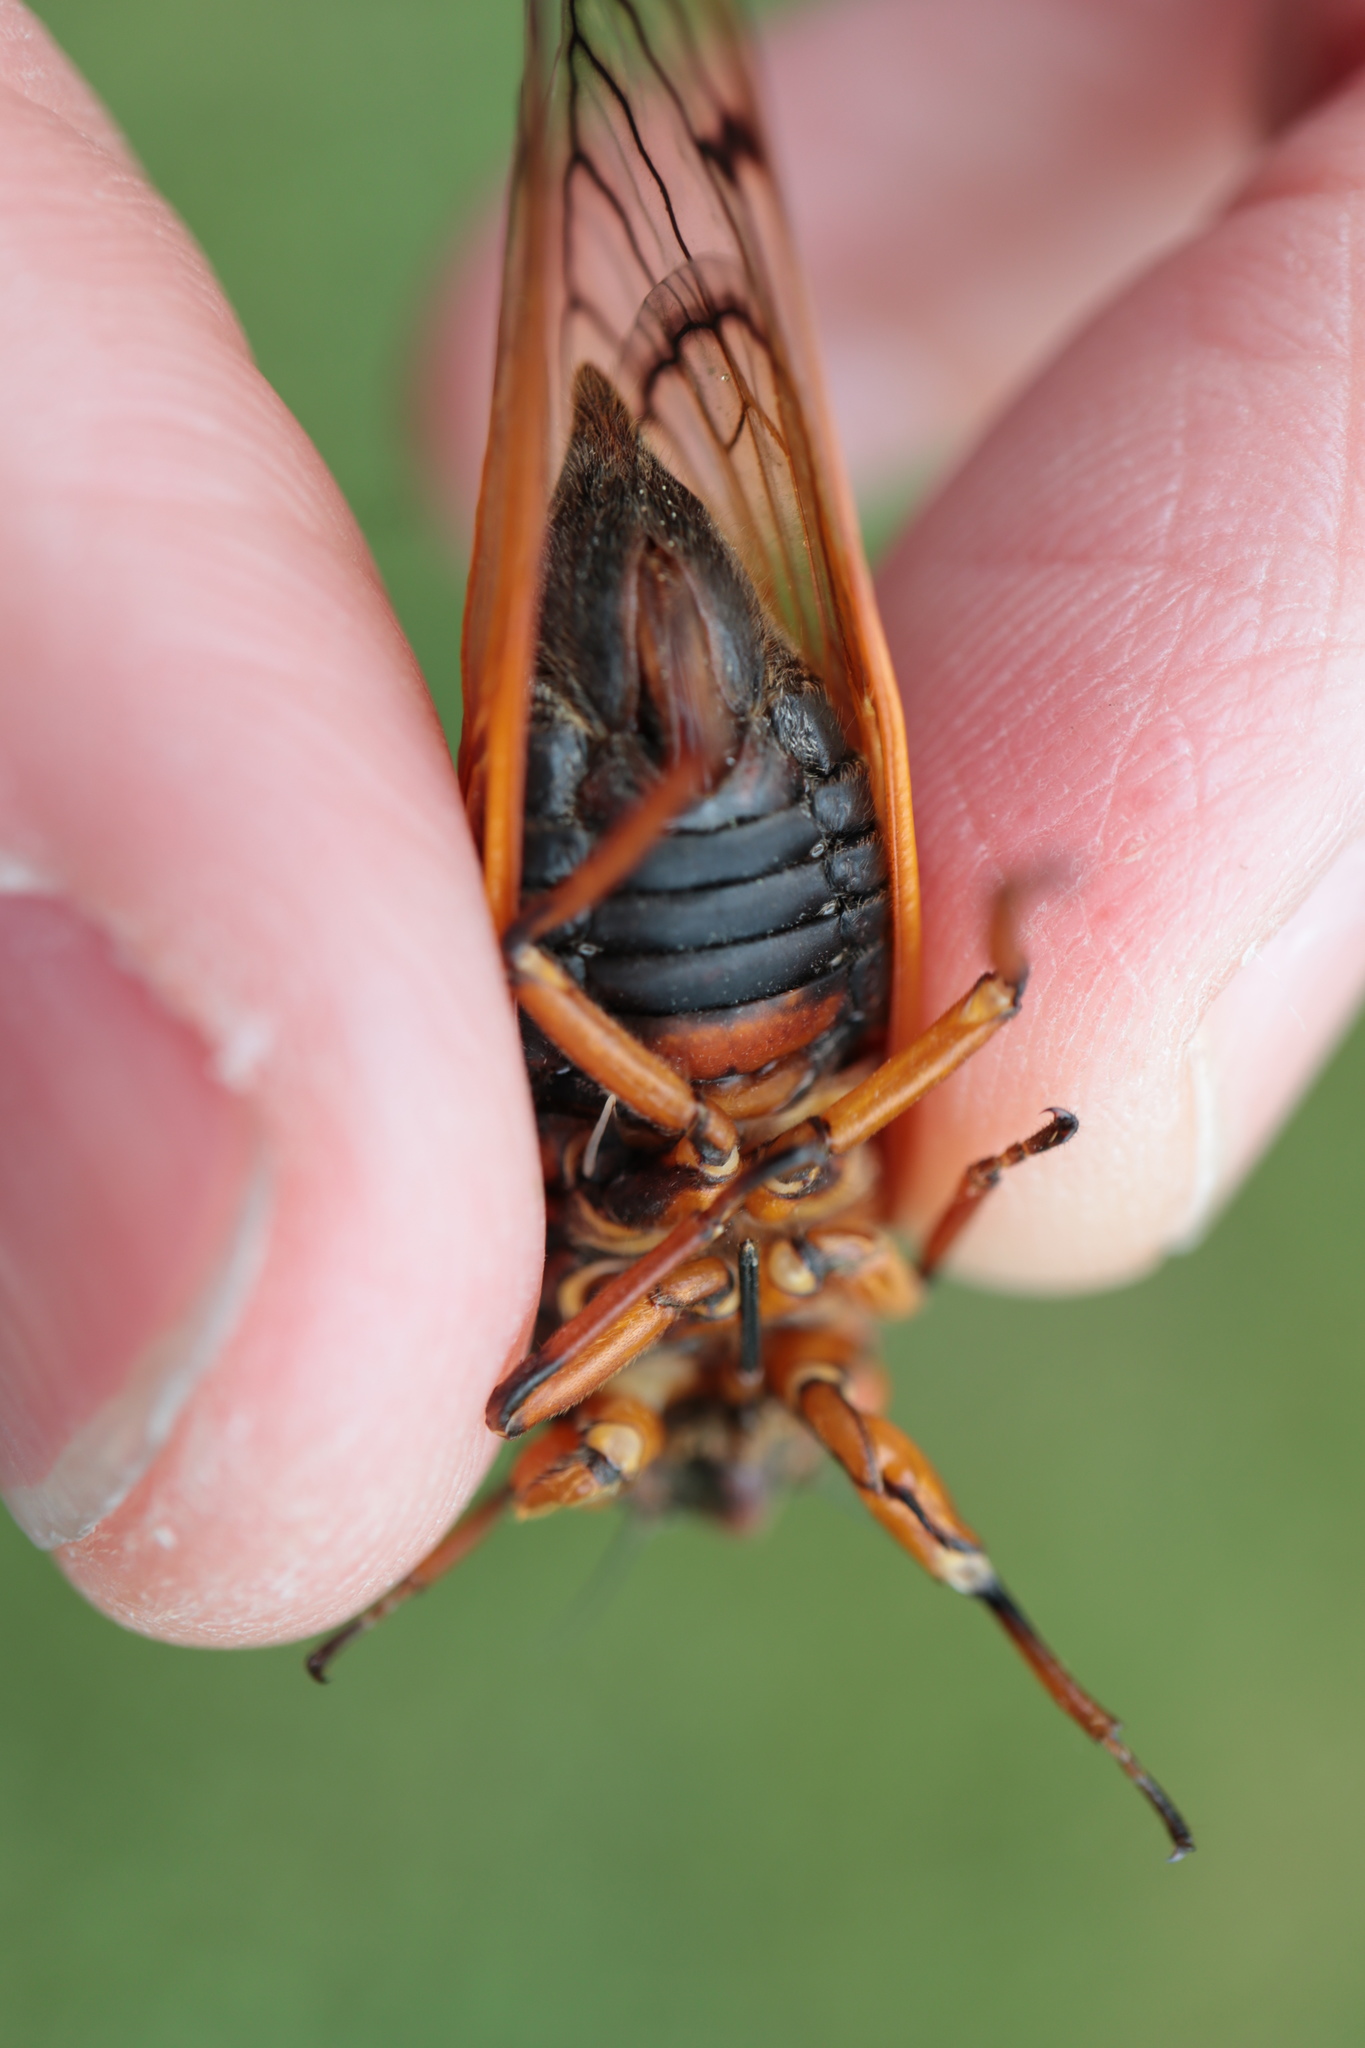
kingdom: Animalia
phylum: Arthropoda
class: Insecta
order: Hemiptera
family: Cicadidae
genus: Magicicada
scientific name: Magicicada cassini
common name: Cassin's 17-year cicada
